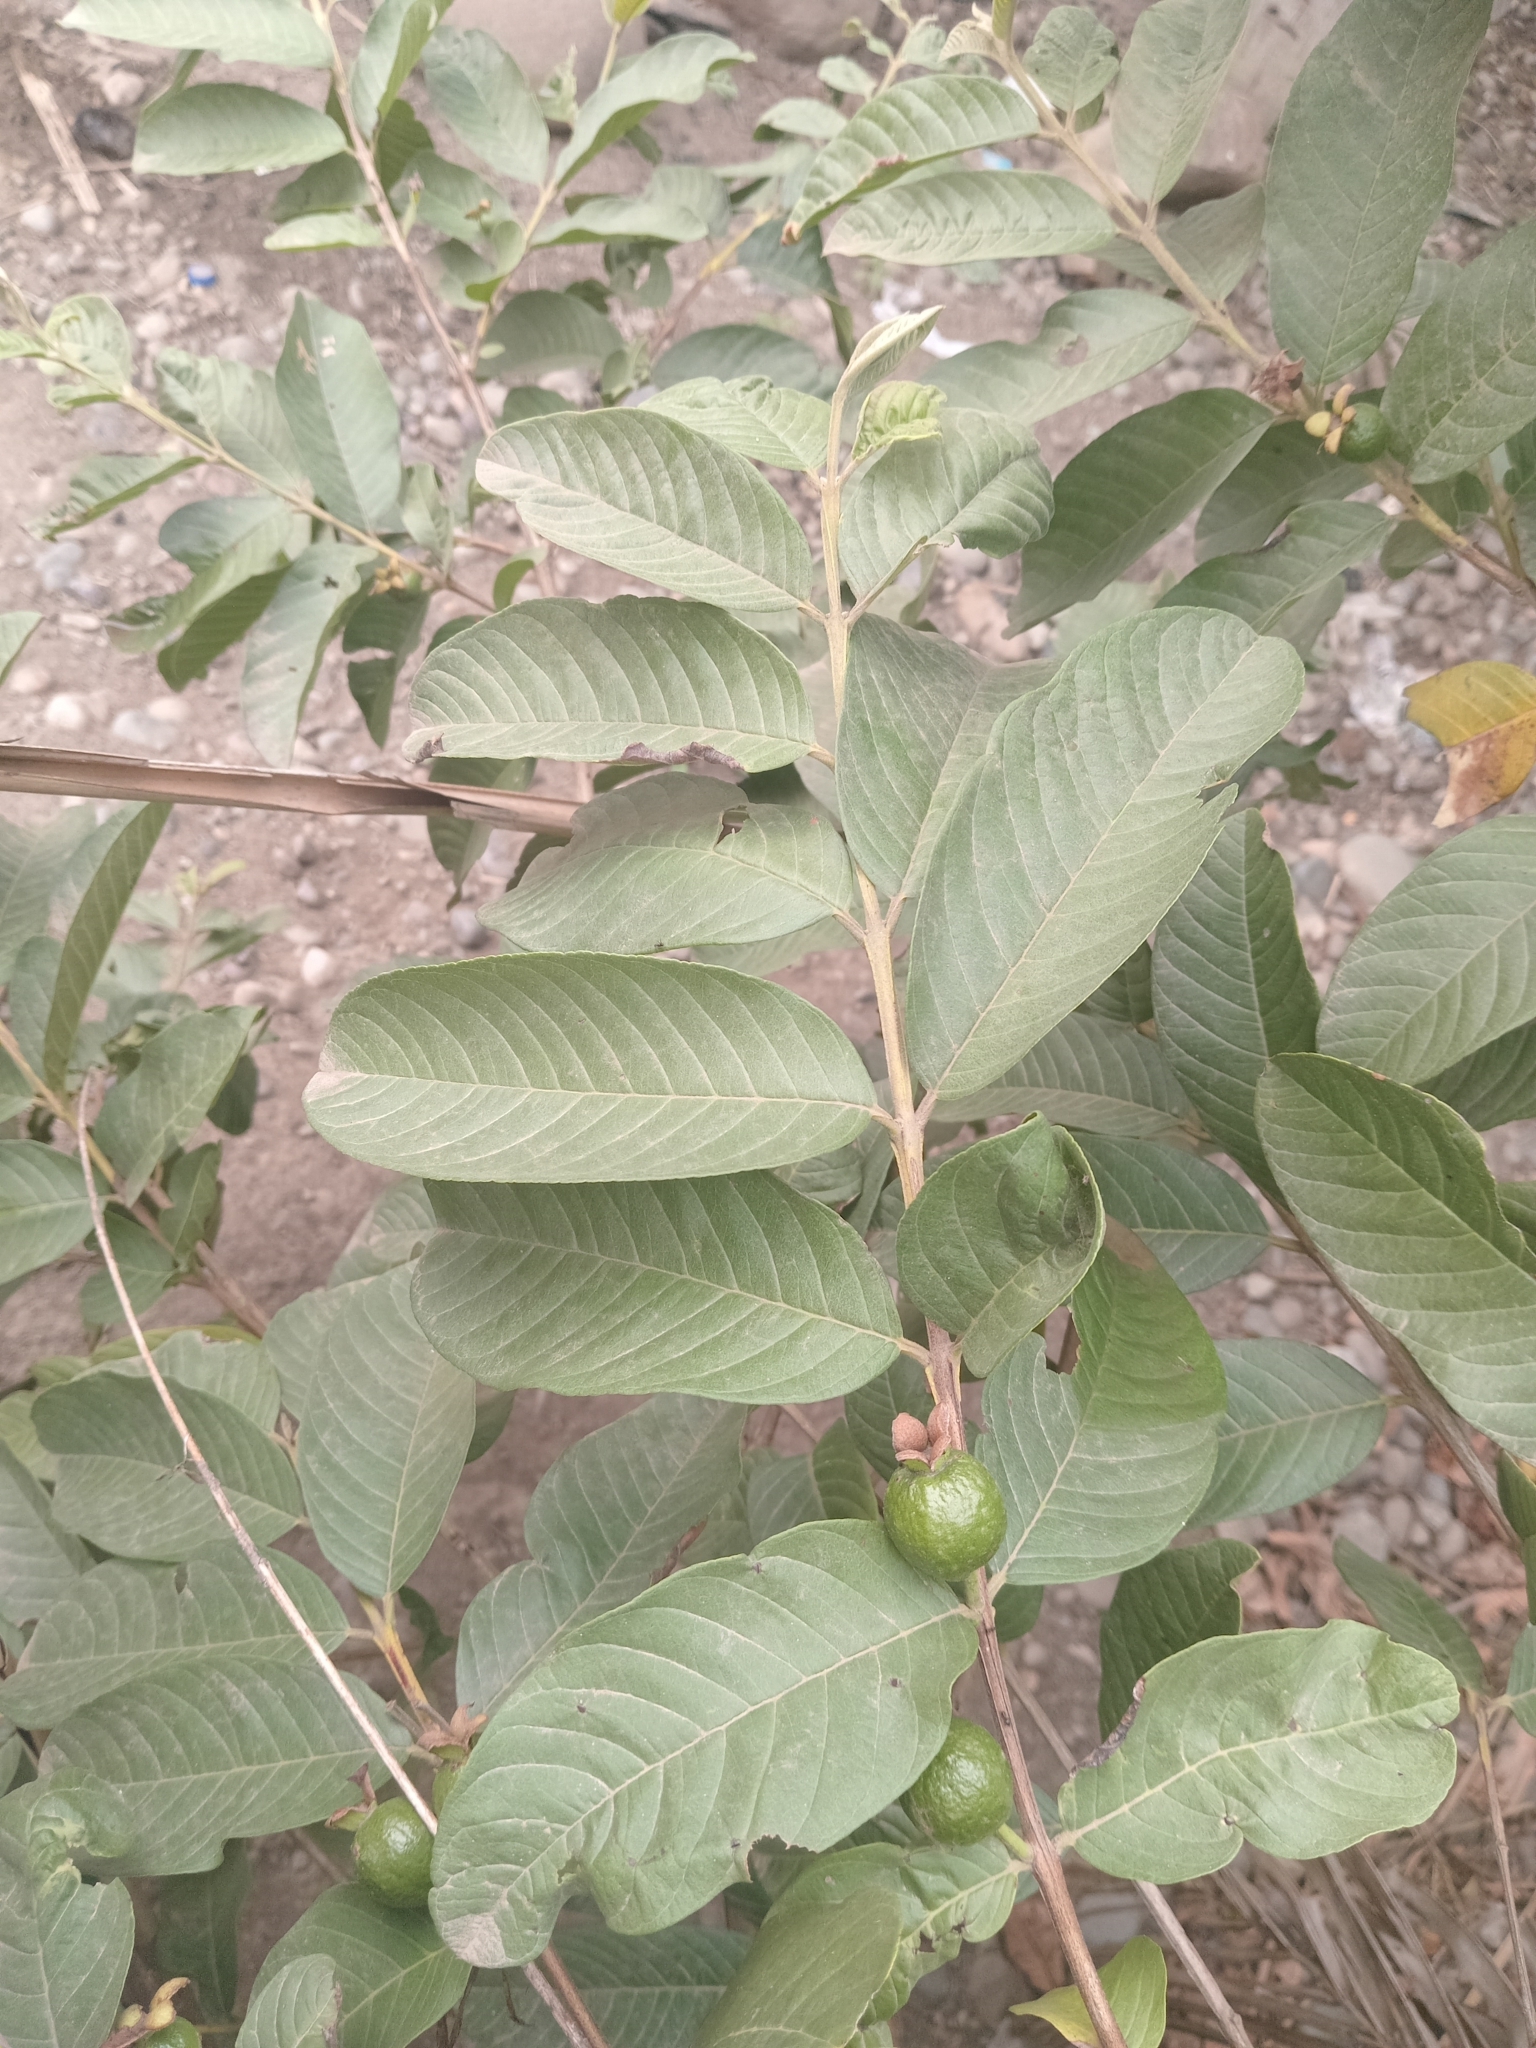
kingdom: Plantae
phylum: Tracheophyta
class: Magnoliopsida
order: Myrtales
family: Myrtaceae
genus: Psidium
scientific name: Psidium guajava
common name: Guava
